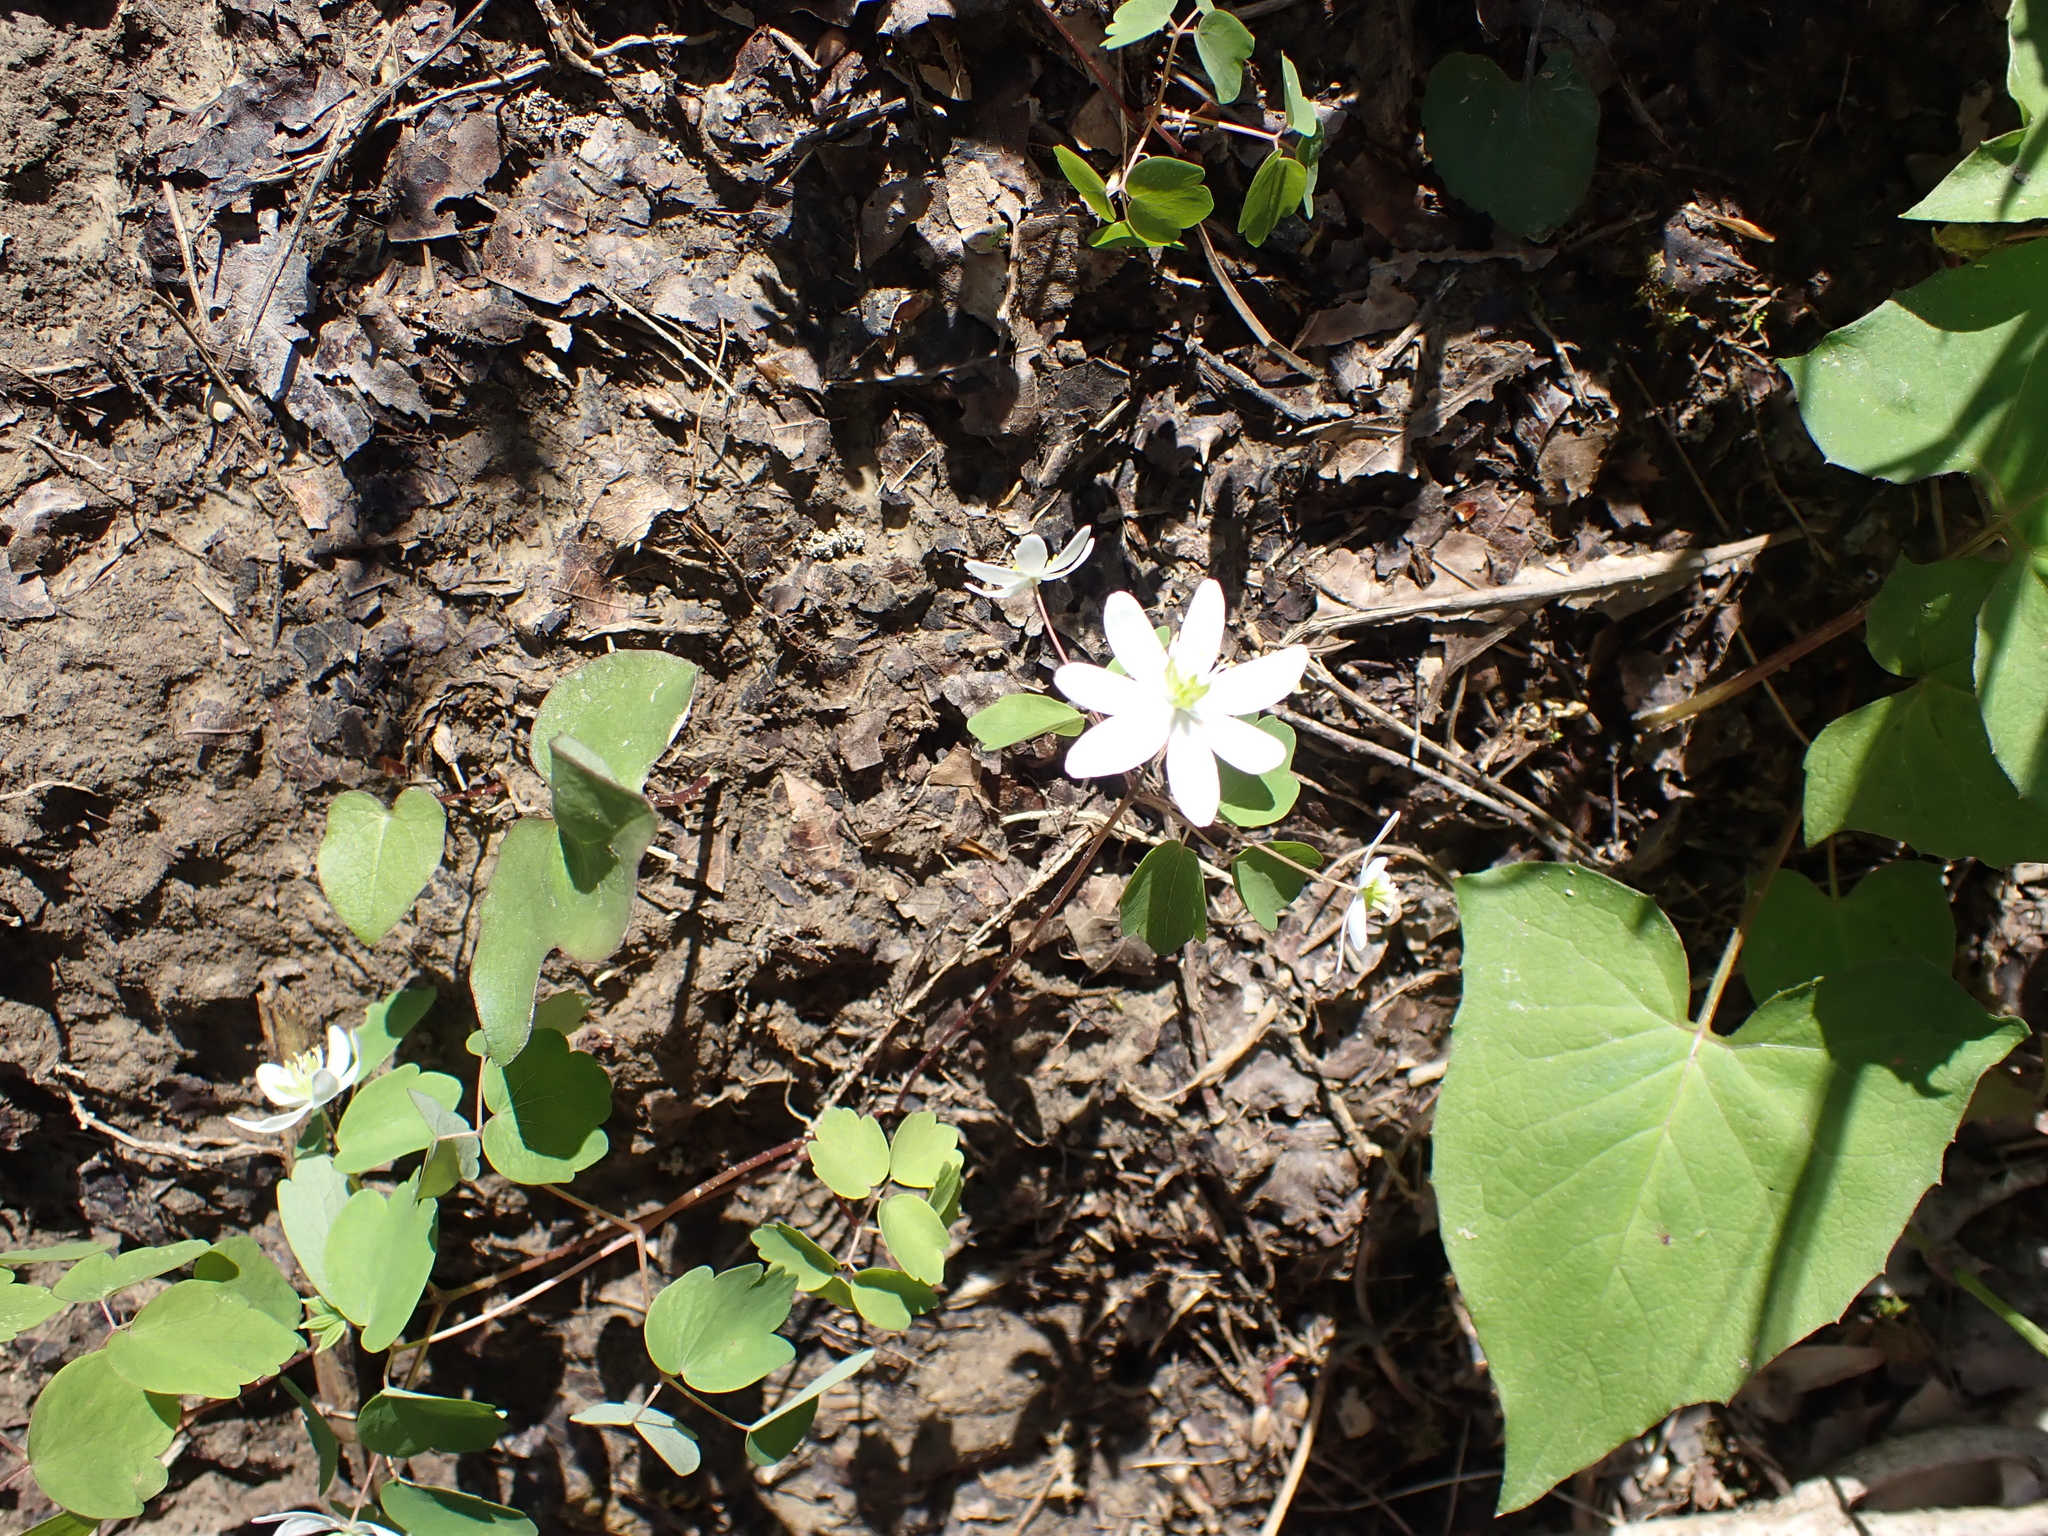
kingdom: Plantae
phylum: Tracheophyta
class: Magnoliopsida
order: Ranunculales
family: Ranunculaceae
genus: Thalictrum
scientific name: Thalictrum thalictroides
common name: Rue-anemone
